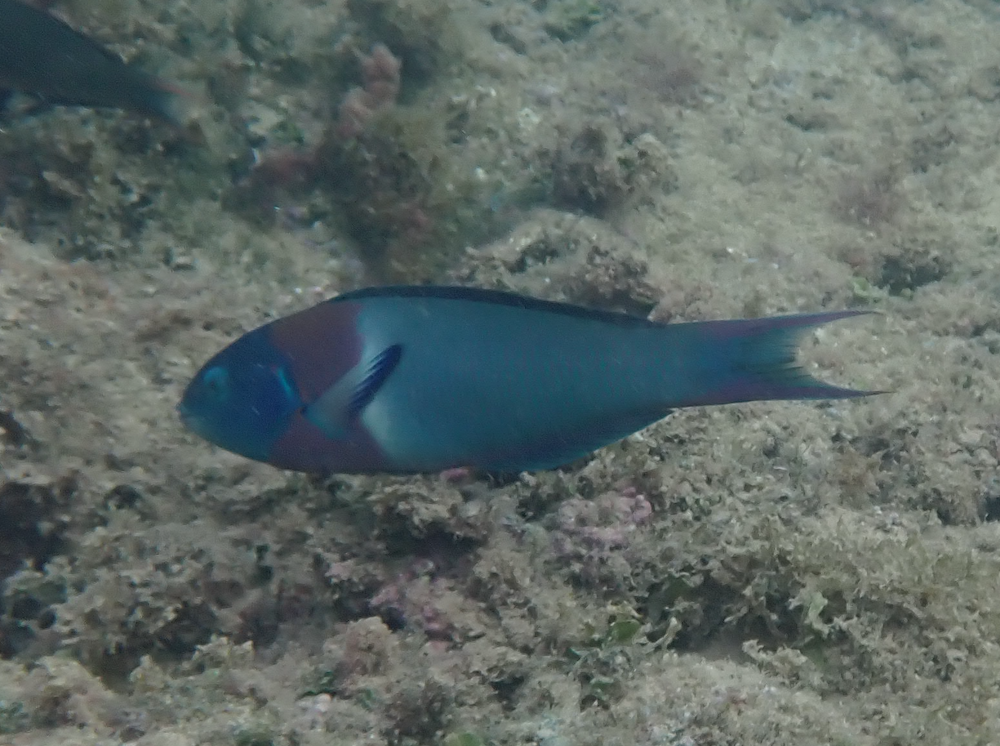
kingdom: Animalia
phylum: Chordata
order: Perciformes
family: Labridae
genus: Thalassoma
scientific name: Thalassoma duperrey
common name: Saddle wrasse
